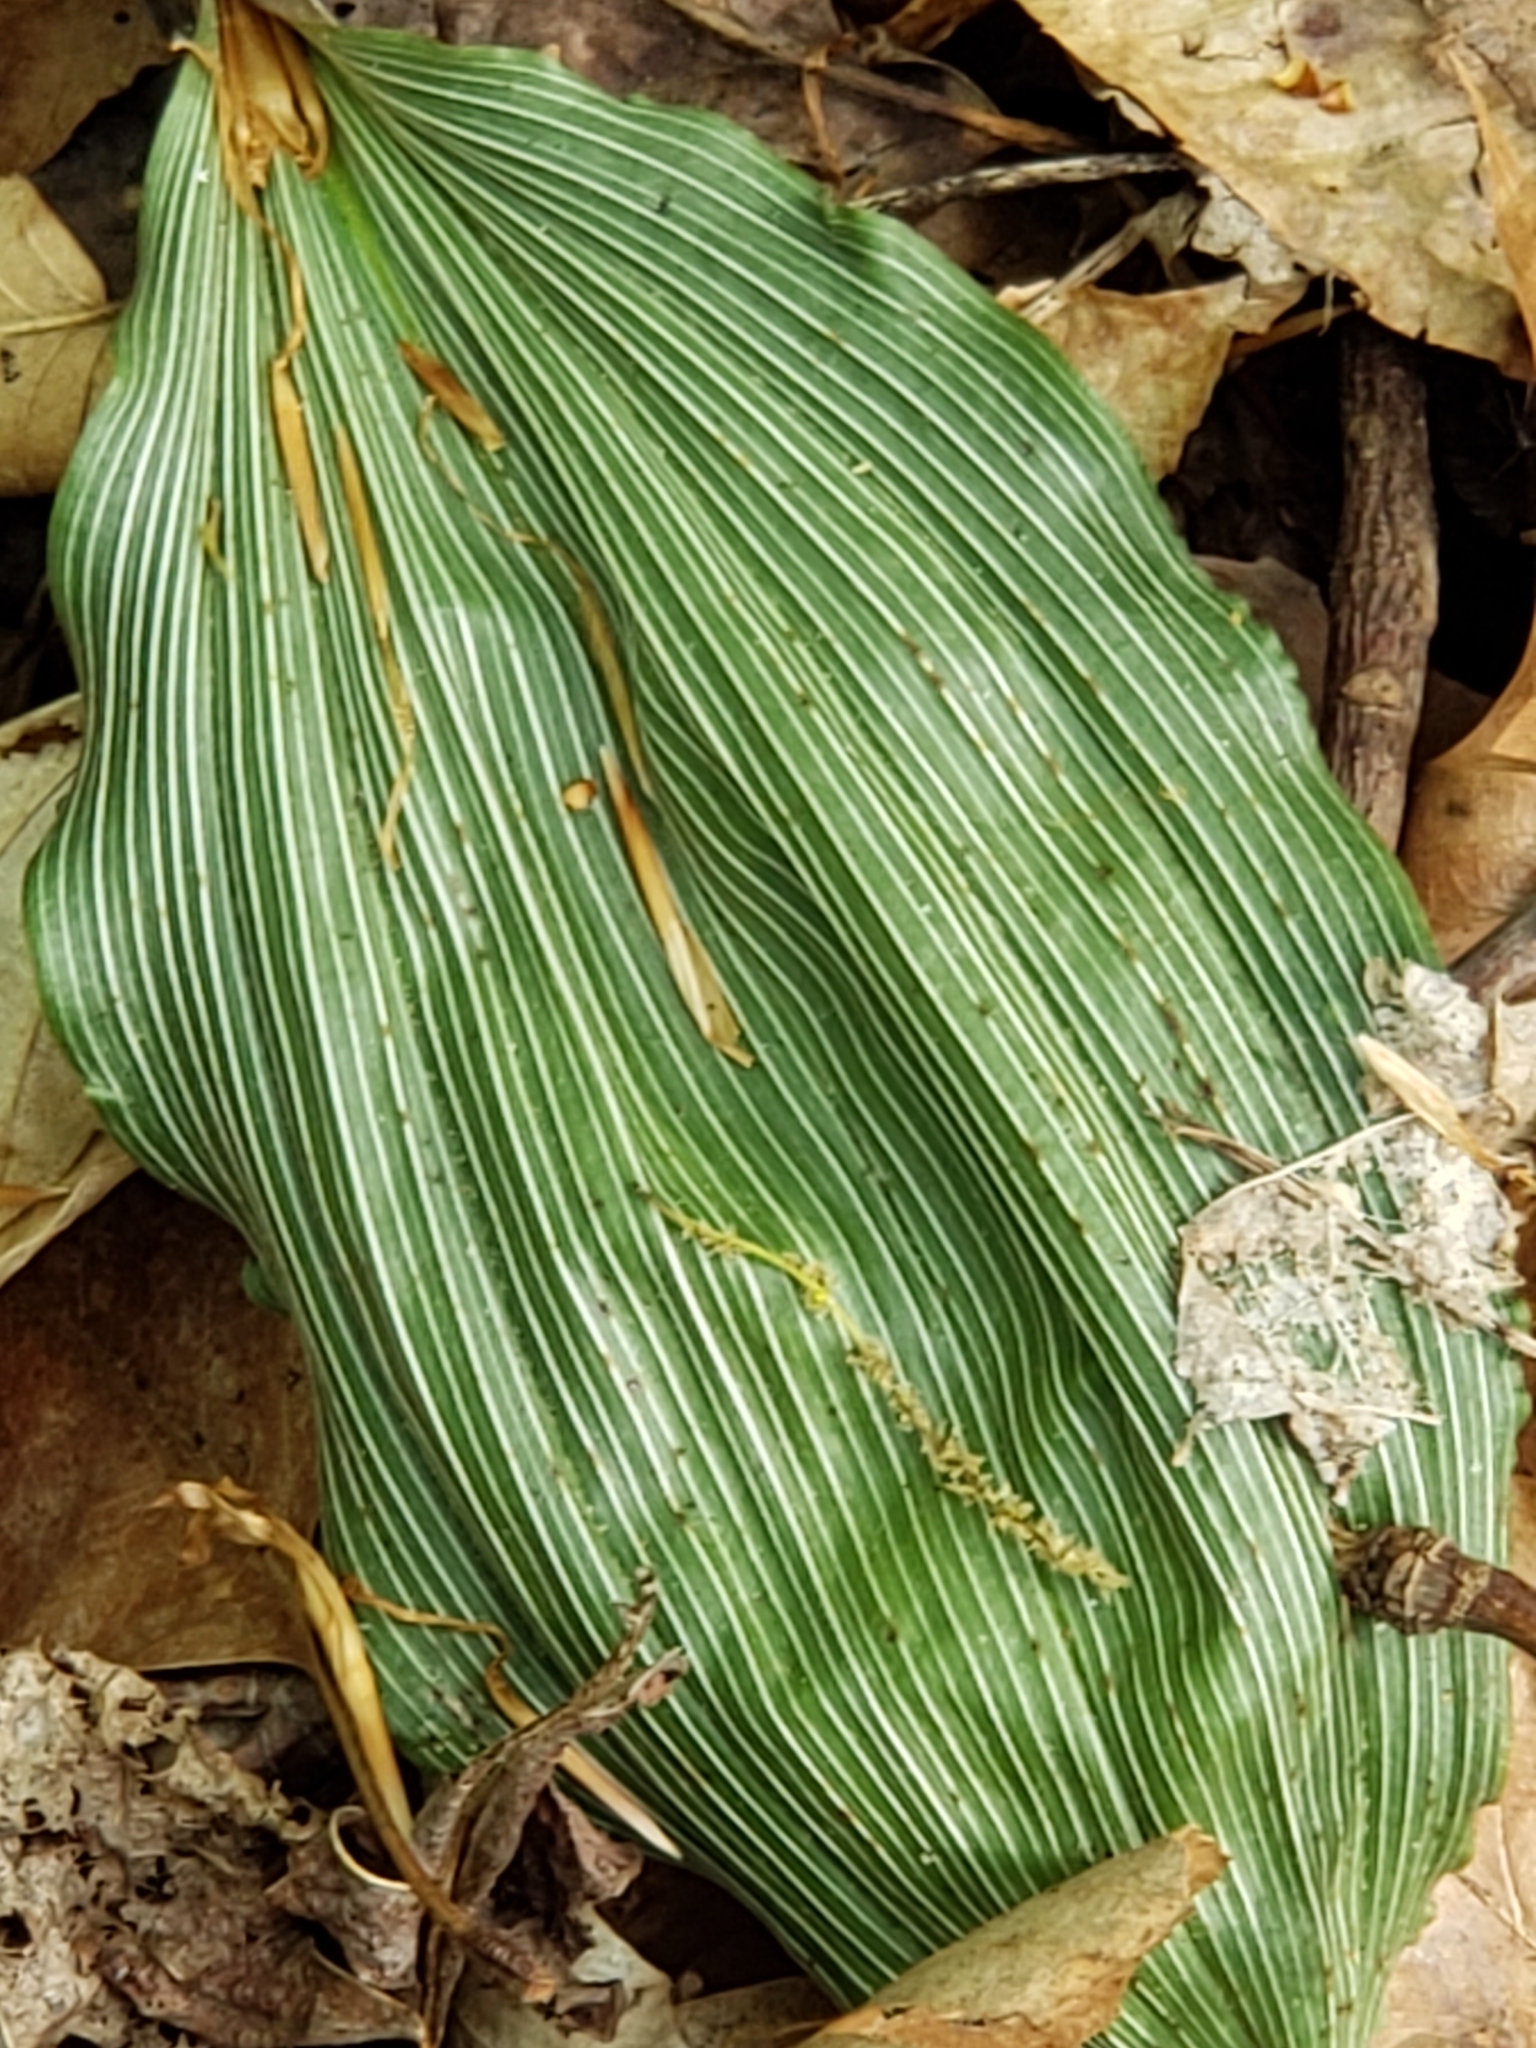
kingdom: Plantae
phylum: Tracheophyta
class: Liliopsida
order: Asparagales
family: Orchidaceae
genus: Aplectrum
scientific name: Aplectrum hyemale
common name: Adam-and-eve
